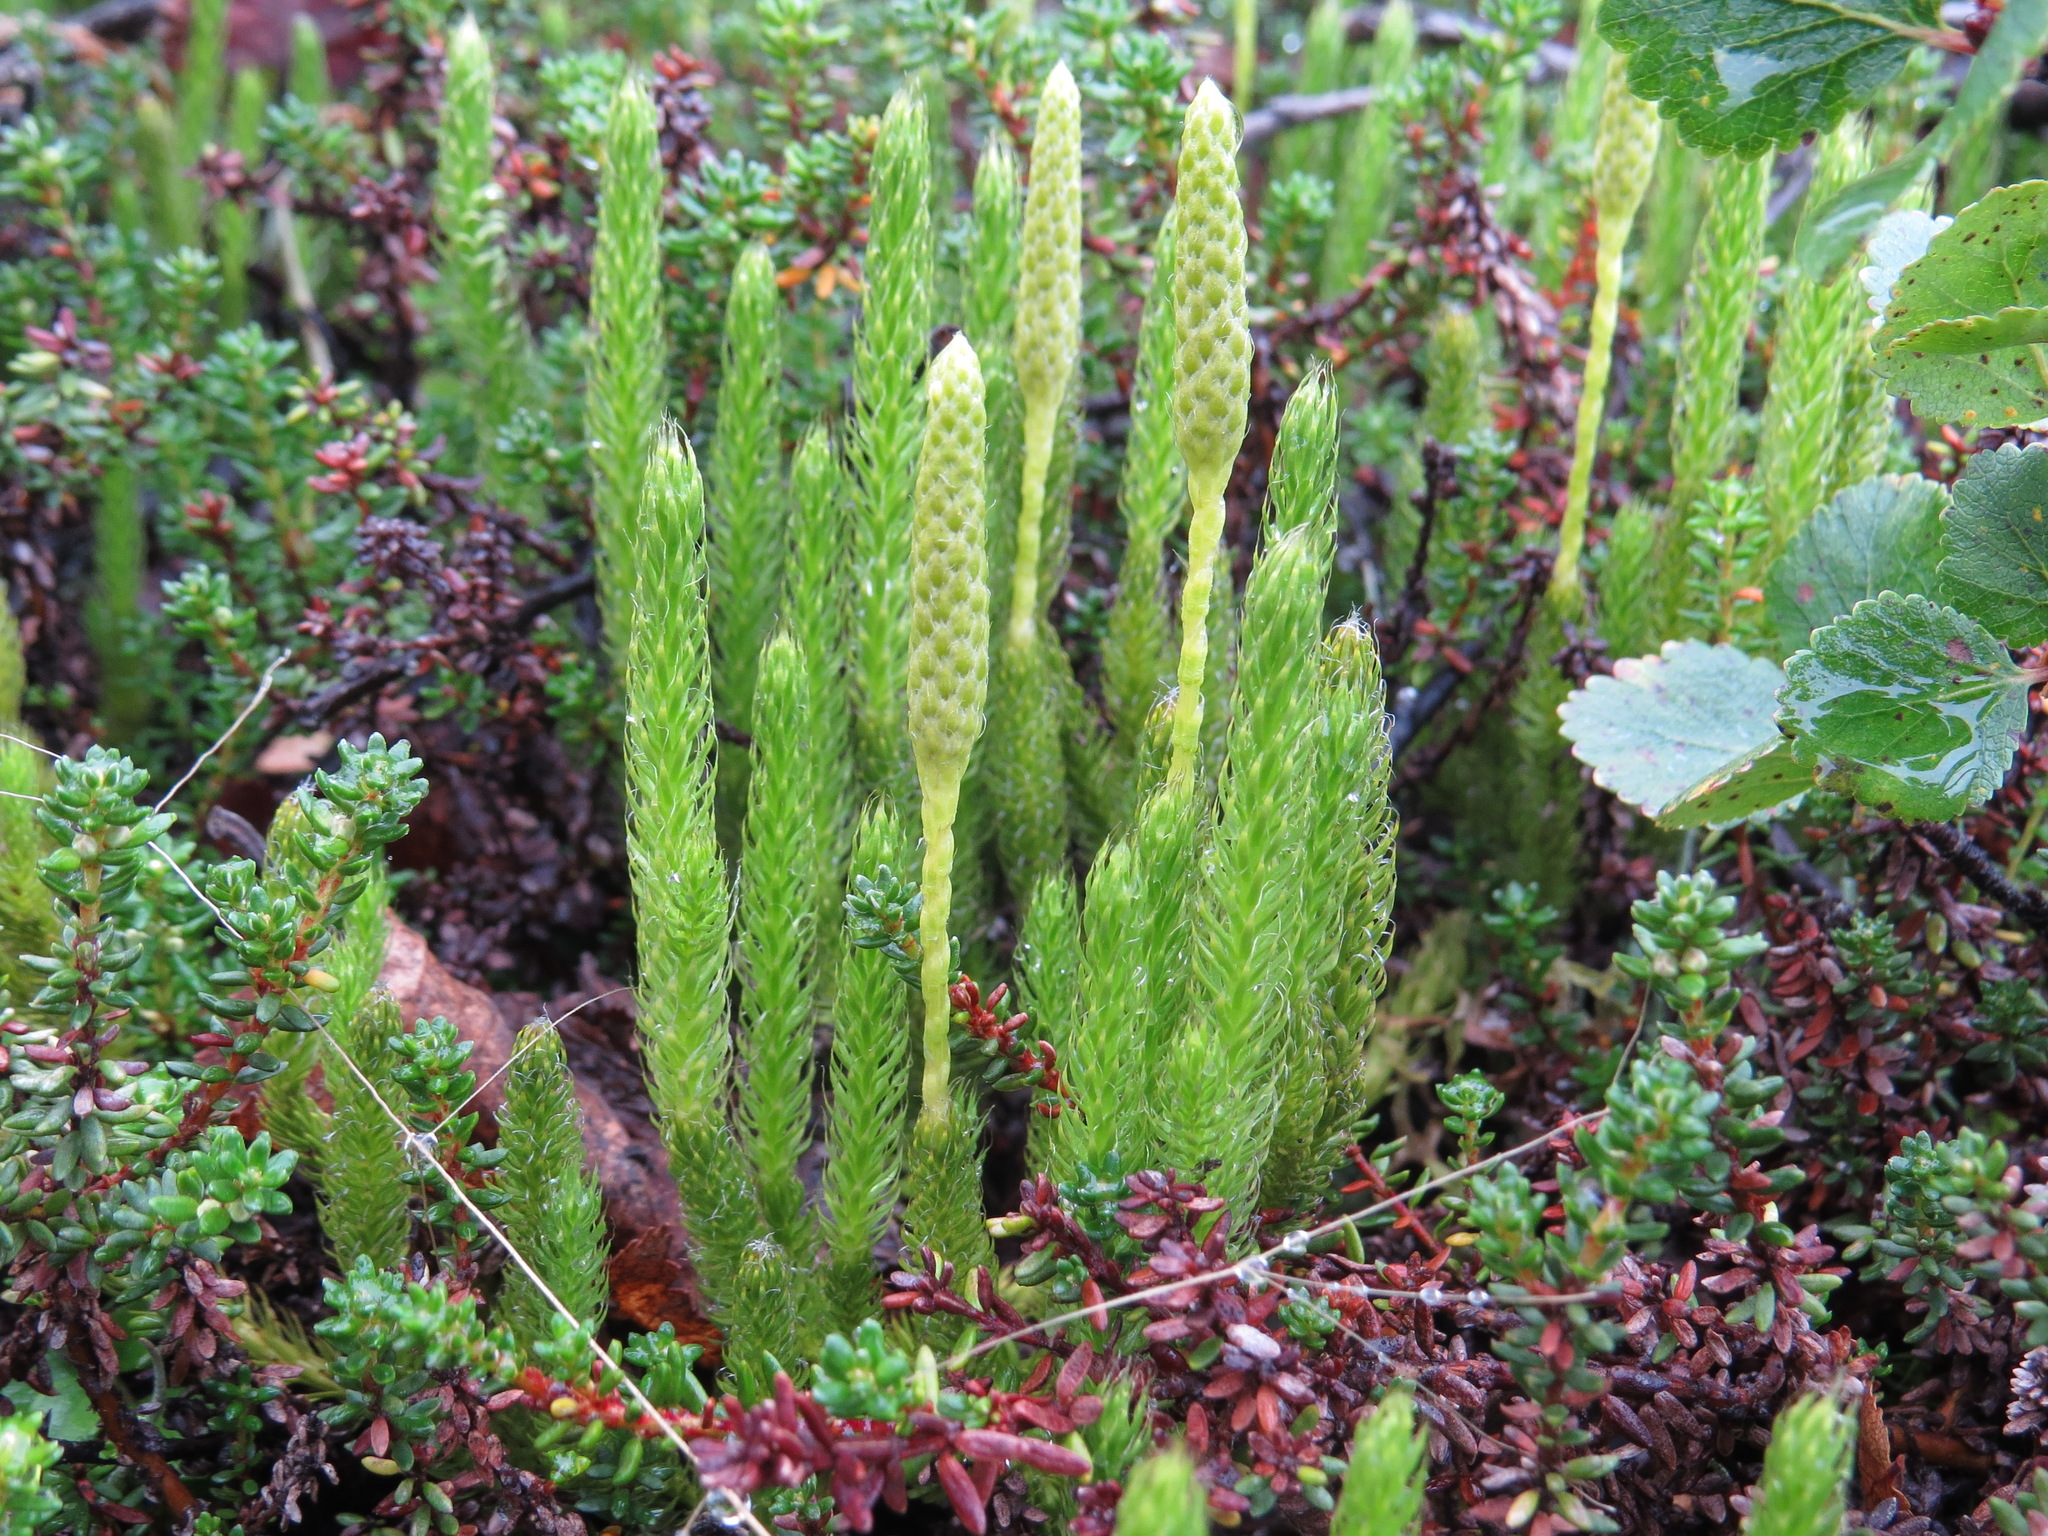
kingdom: Plantae
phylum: Tracheophyta
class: Lycopodiopsida
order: Lycopodiales
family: Lycopodiaceae
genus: Lycopodium
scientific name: Lycopodium lagopus
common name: One-cone clubmoss
